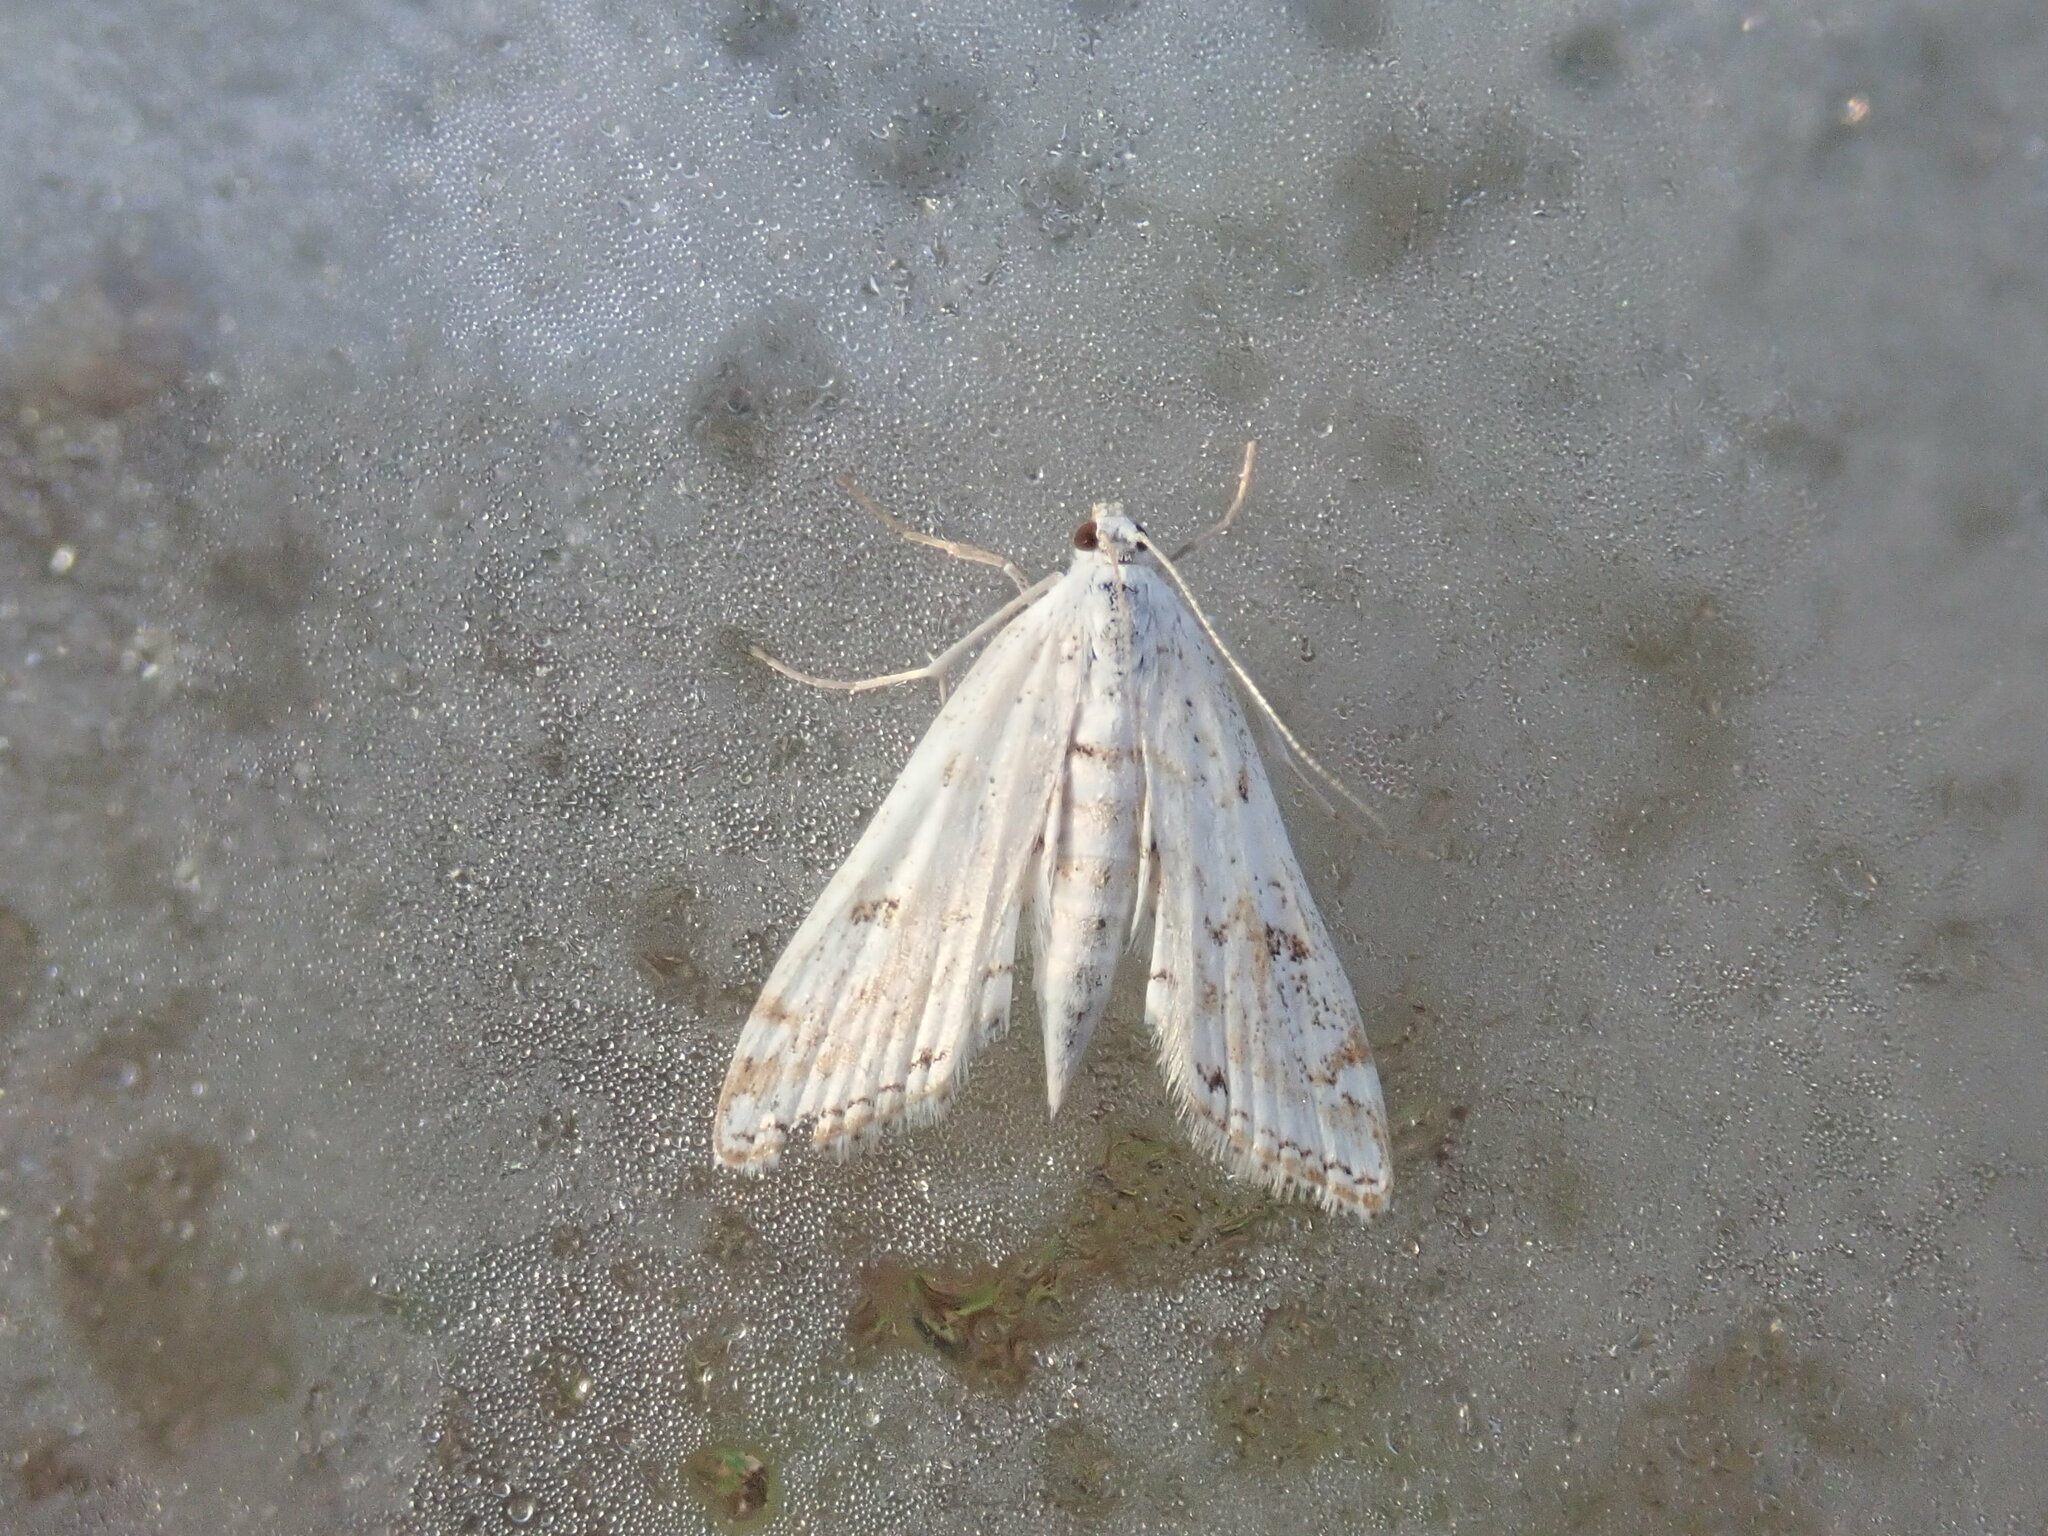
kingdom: Animalia
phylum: Arthropoda
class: Insecta
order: Lepidoptera
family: Crambidae
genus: Parapoynx
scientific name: Parapoynx allionealis
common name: Bladderwort casemaker
